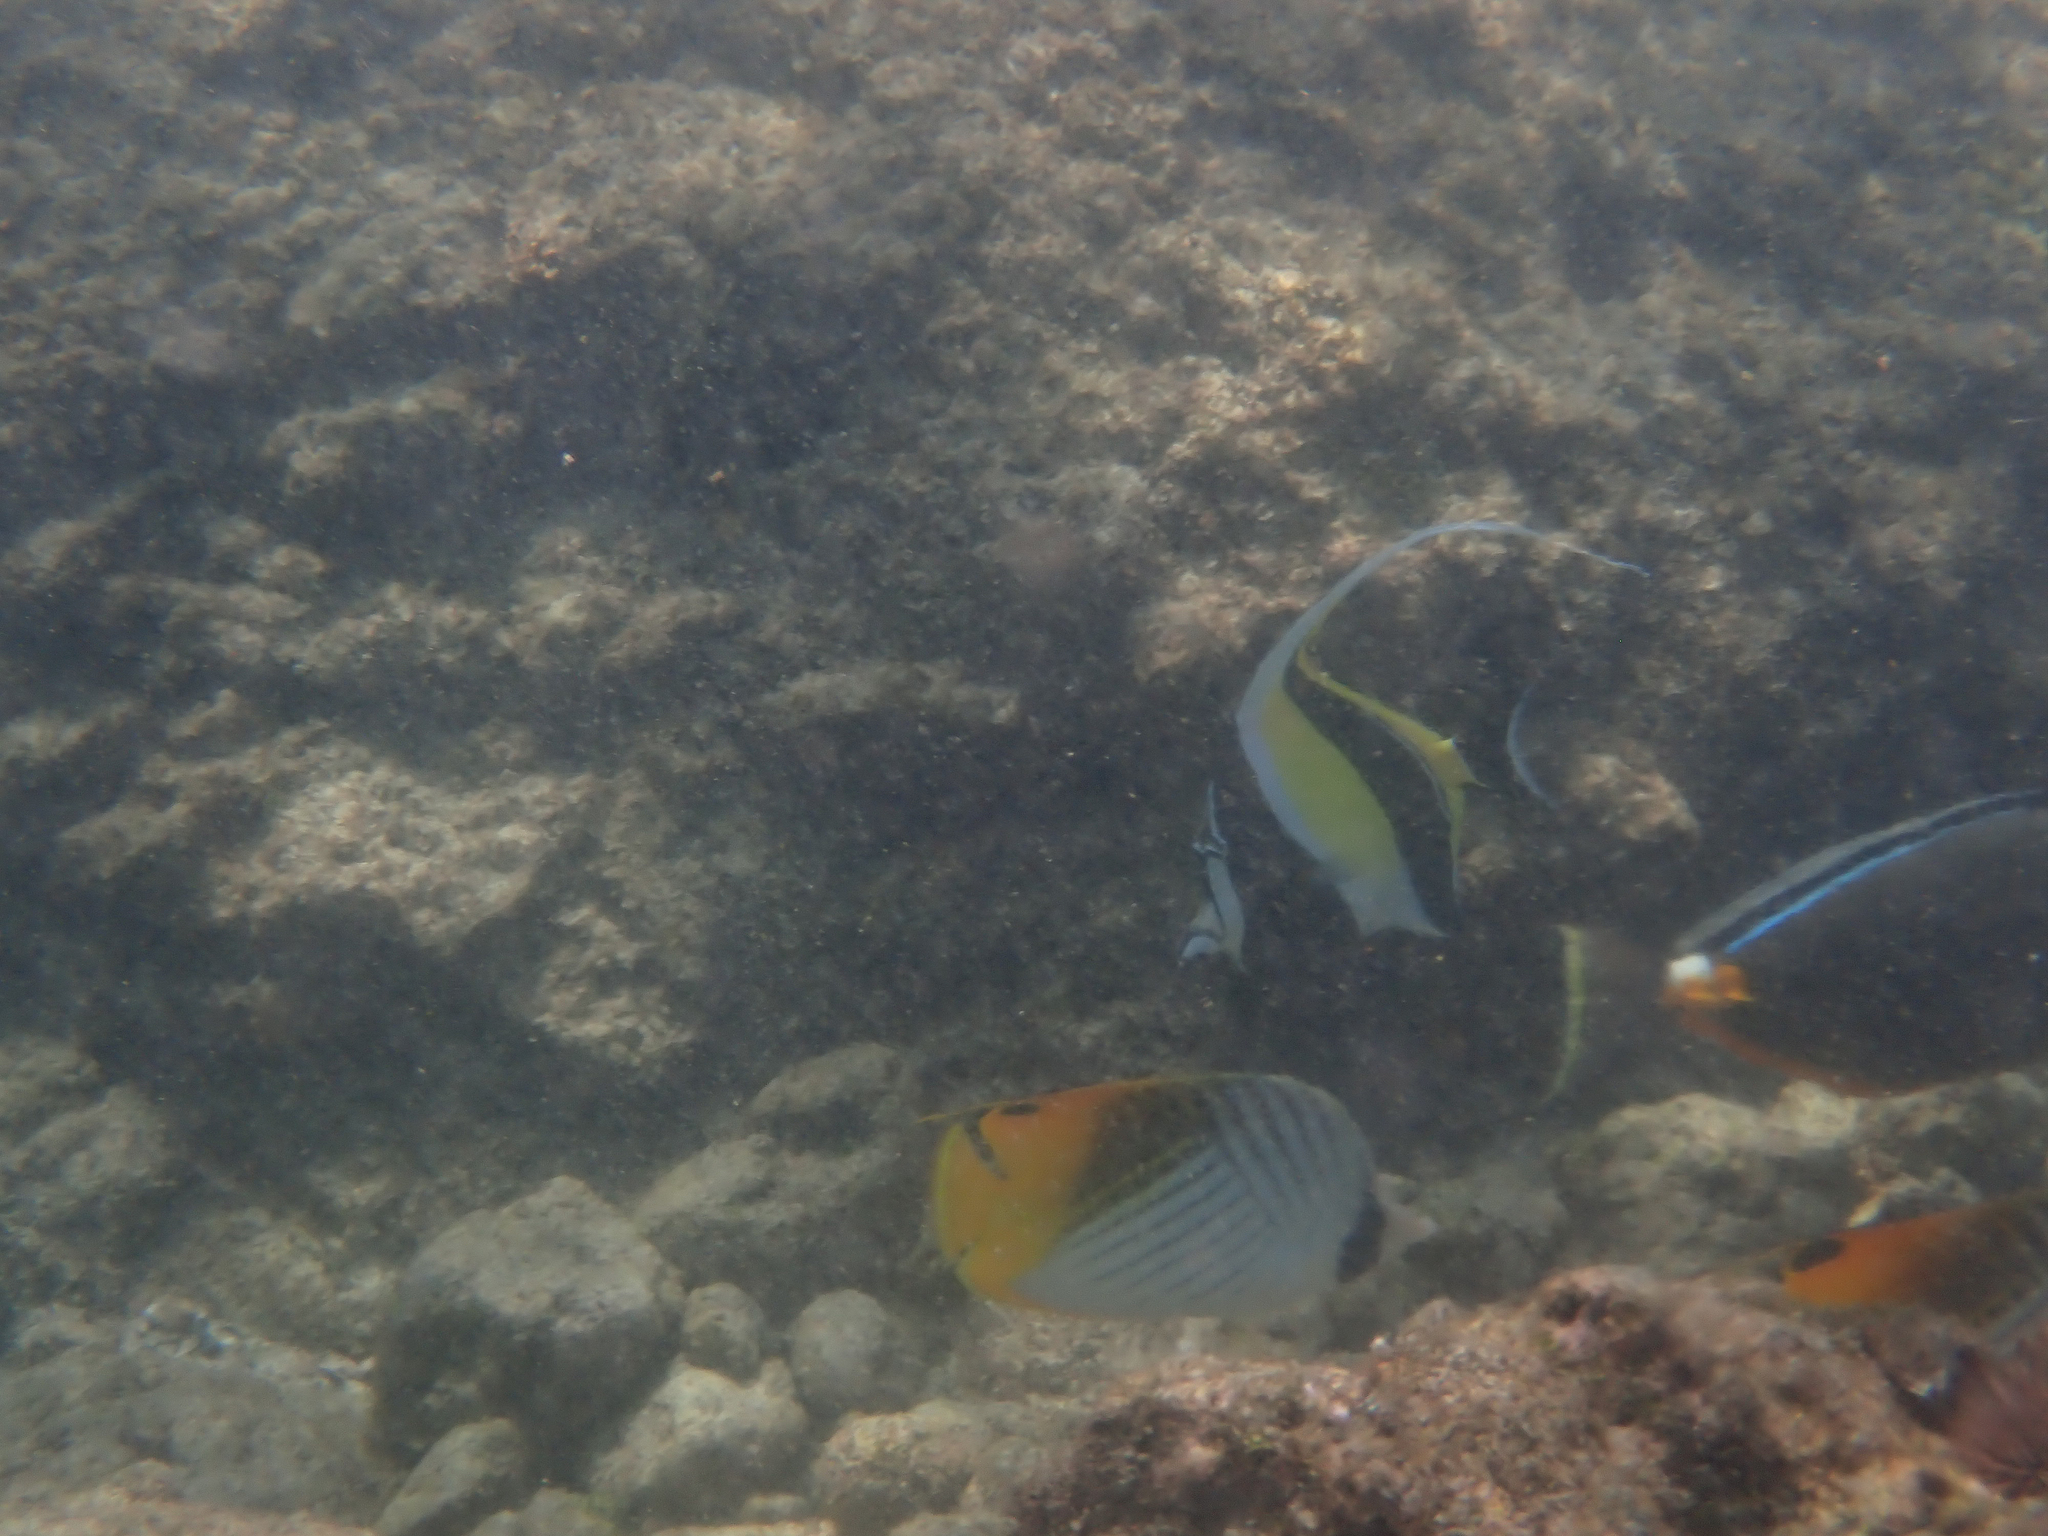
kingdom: Animalia
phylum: Chordata
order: Perciformes
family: Chaetodontidae
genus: Chaetodon
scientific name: Chaetodon auriga
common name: Threadfin butterflyfish
